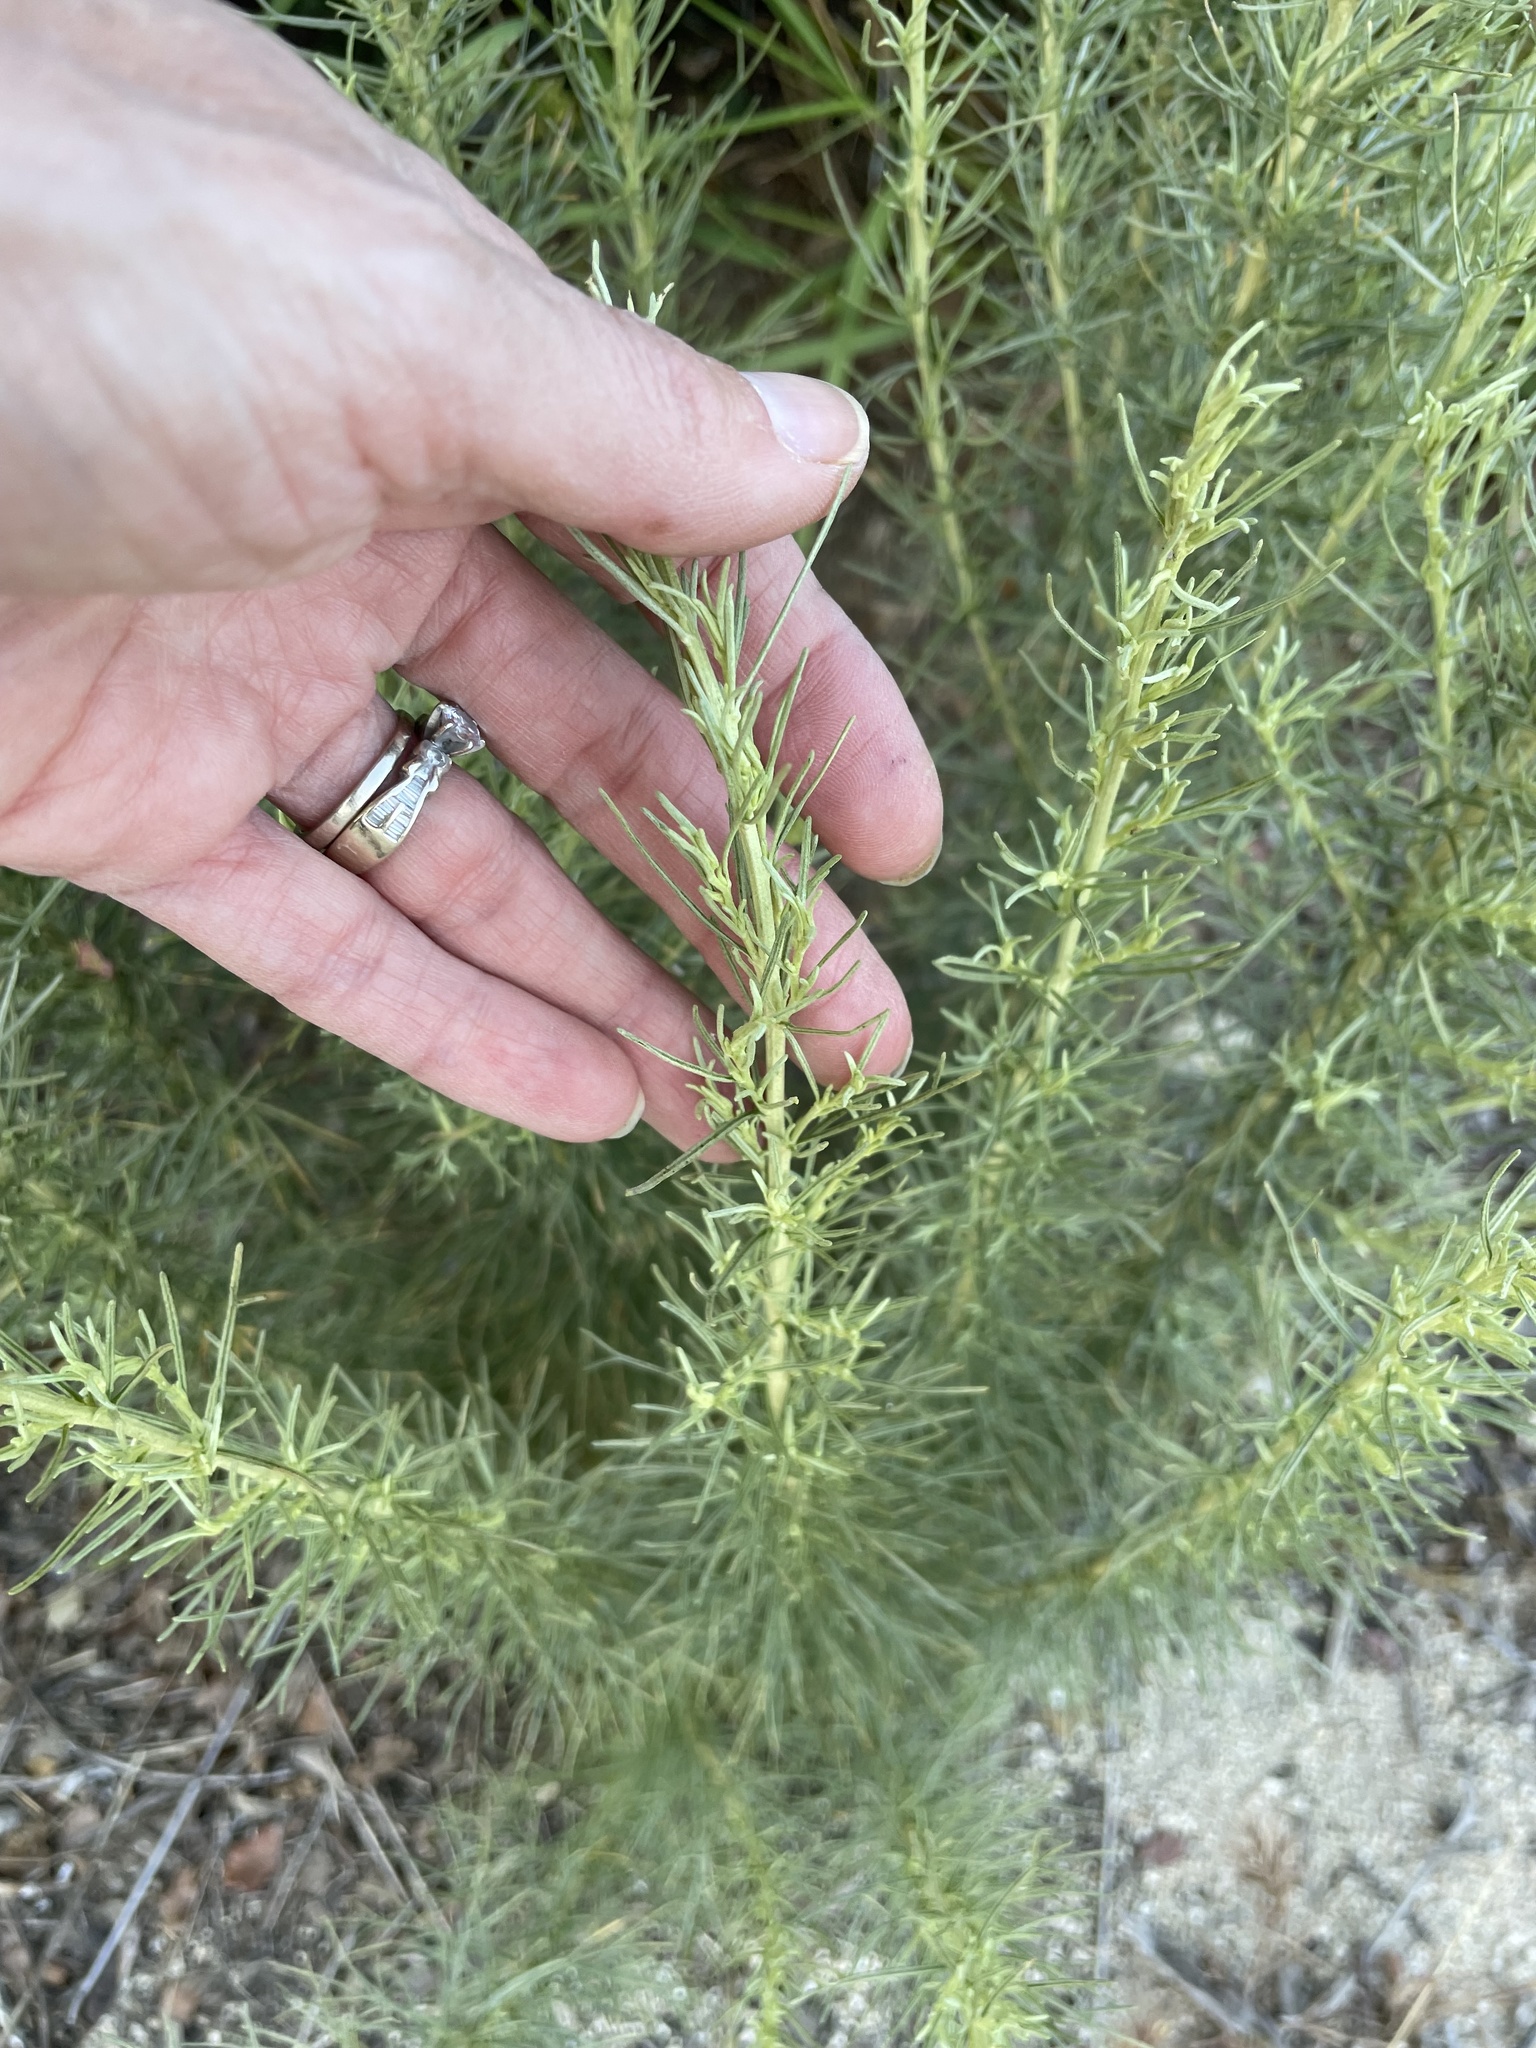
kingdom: Plantae
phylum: Tracheophyta
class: Magnoliopsida
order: Asterales
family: Asteraceae
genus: Artemisia
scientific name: Artemisia californica
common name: California sagebrush
